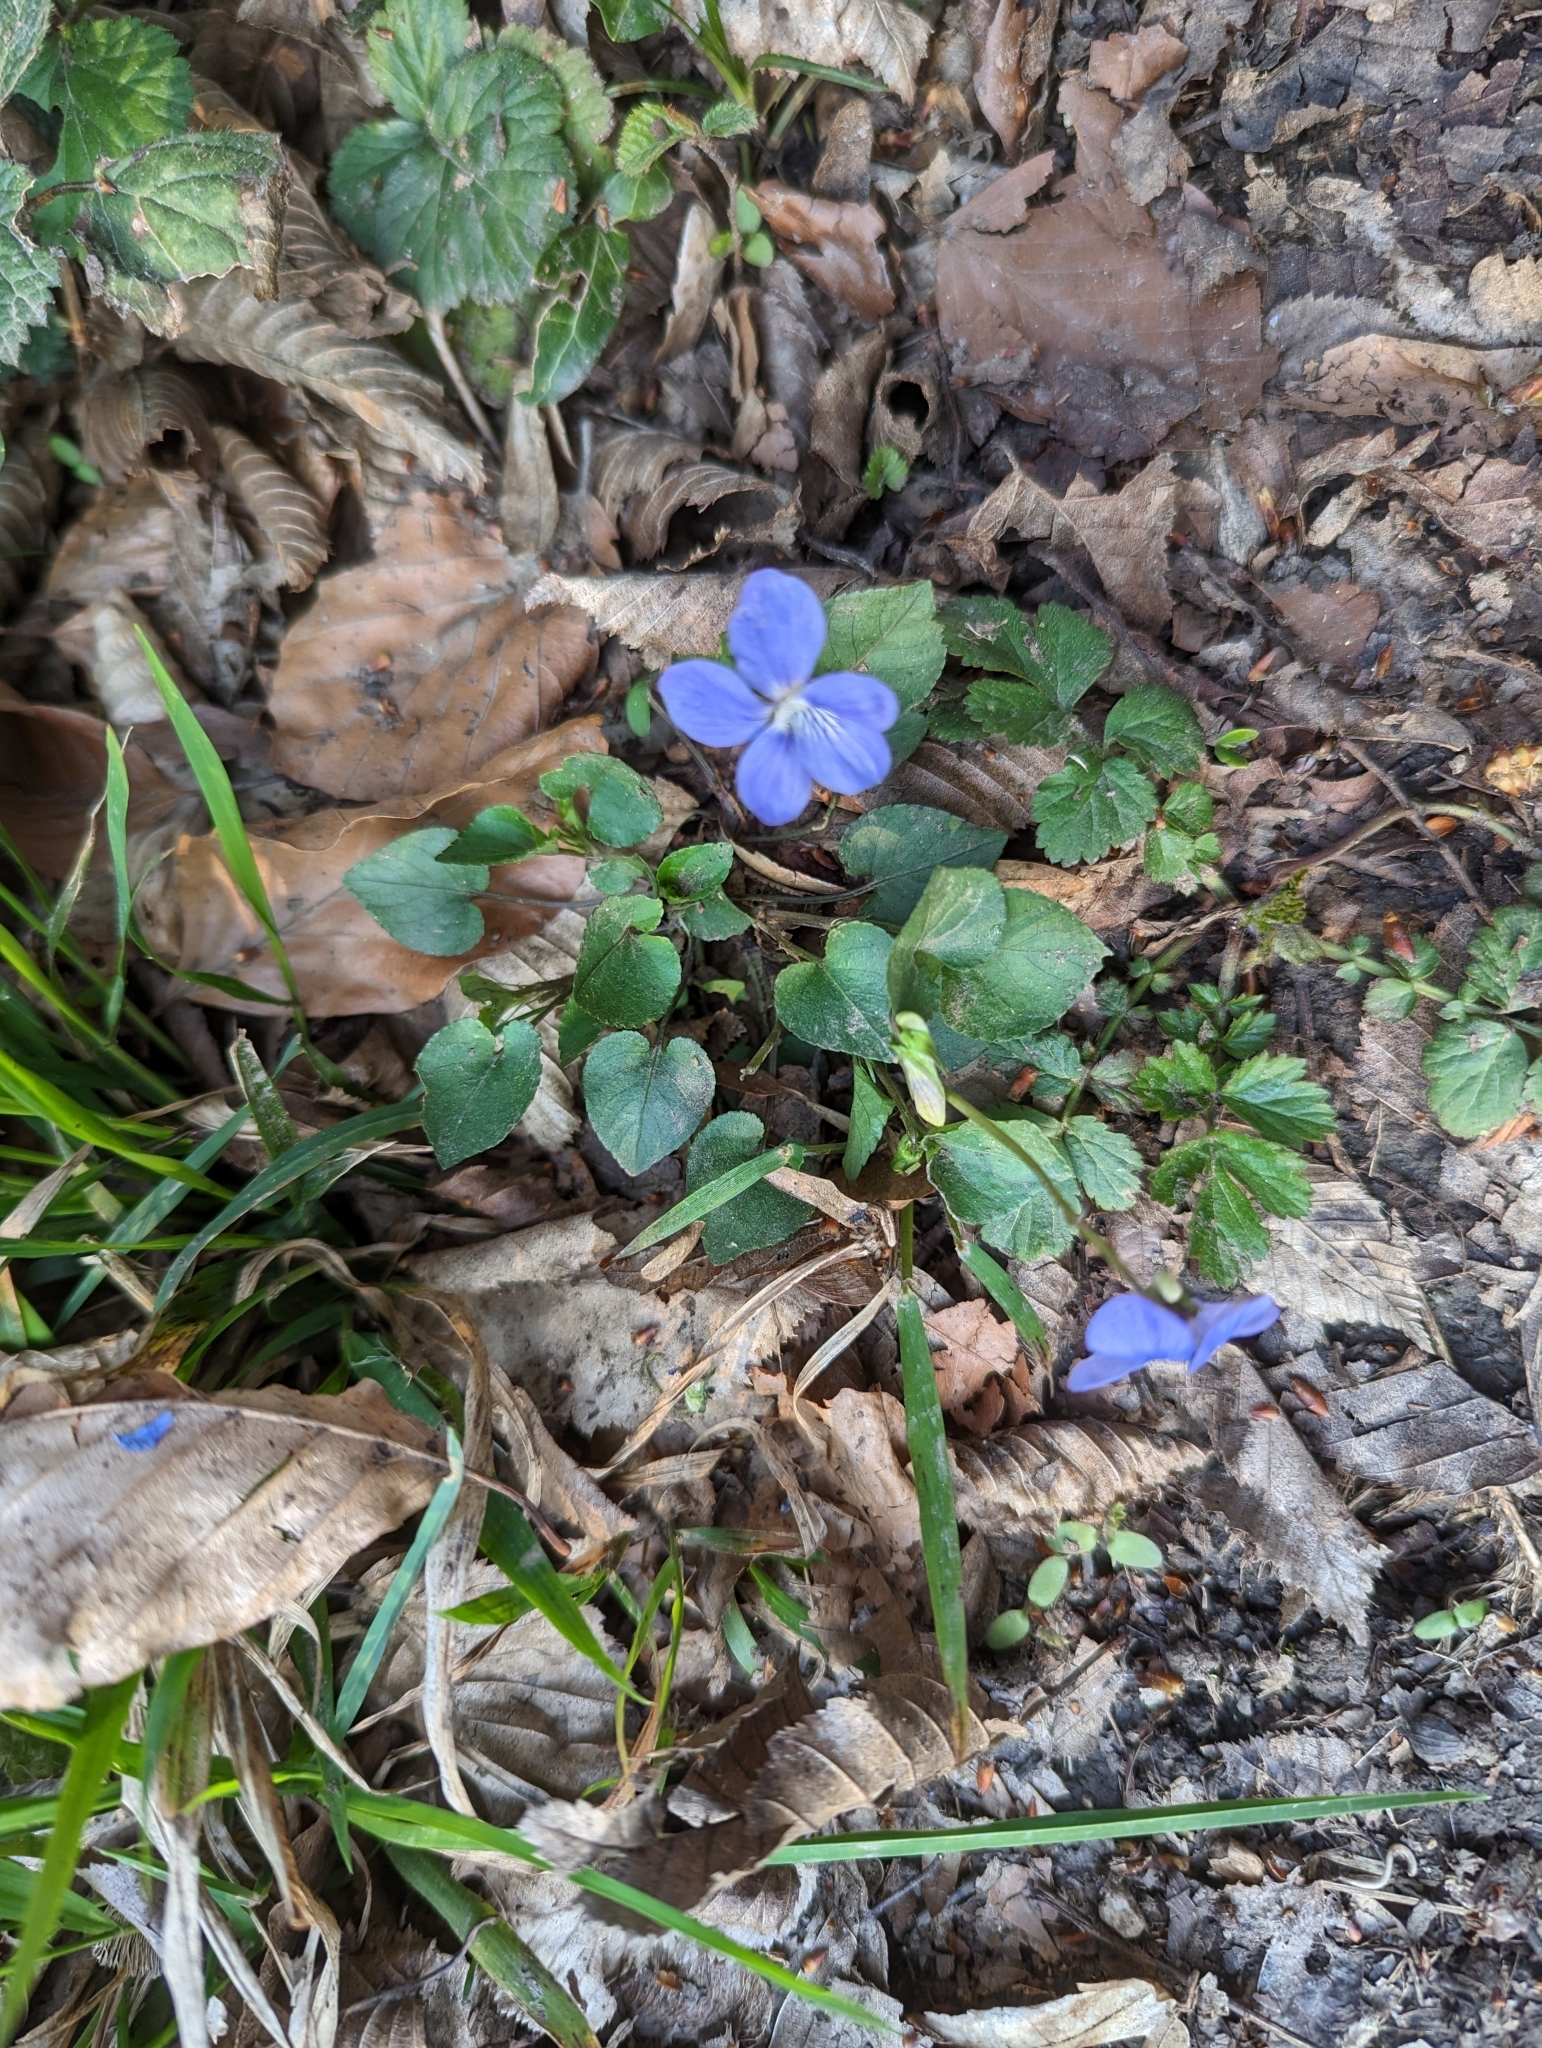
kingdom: Plantae
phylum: Tracheophyta
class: Magnoliopsida
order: Malpighiales
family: Violaceae
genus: Viola
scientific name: Viola riviniana
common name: Common dog-violet
